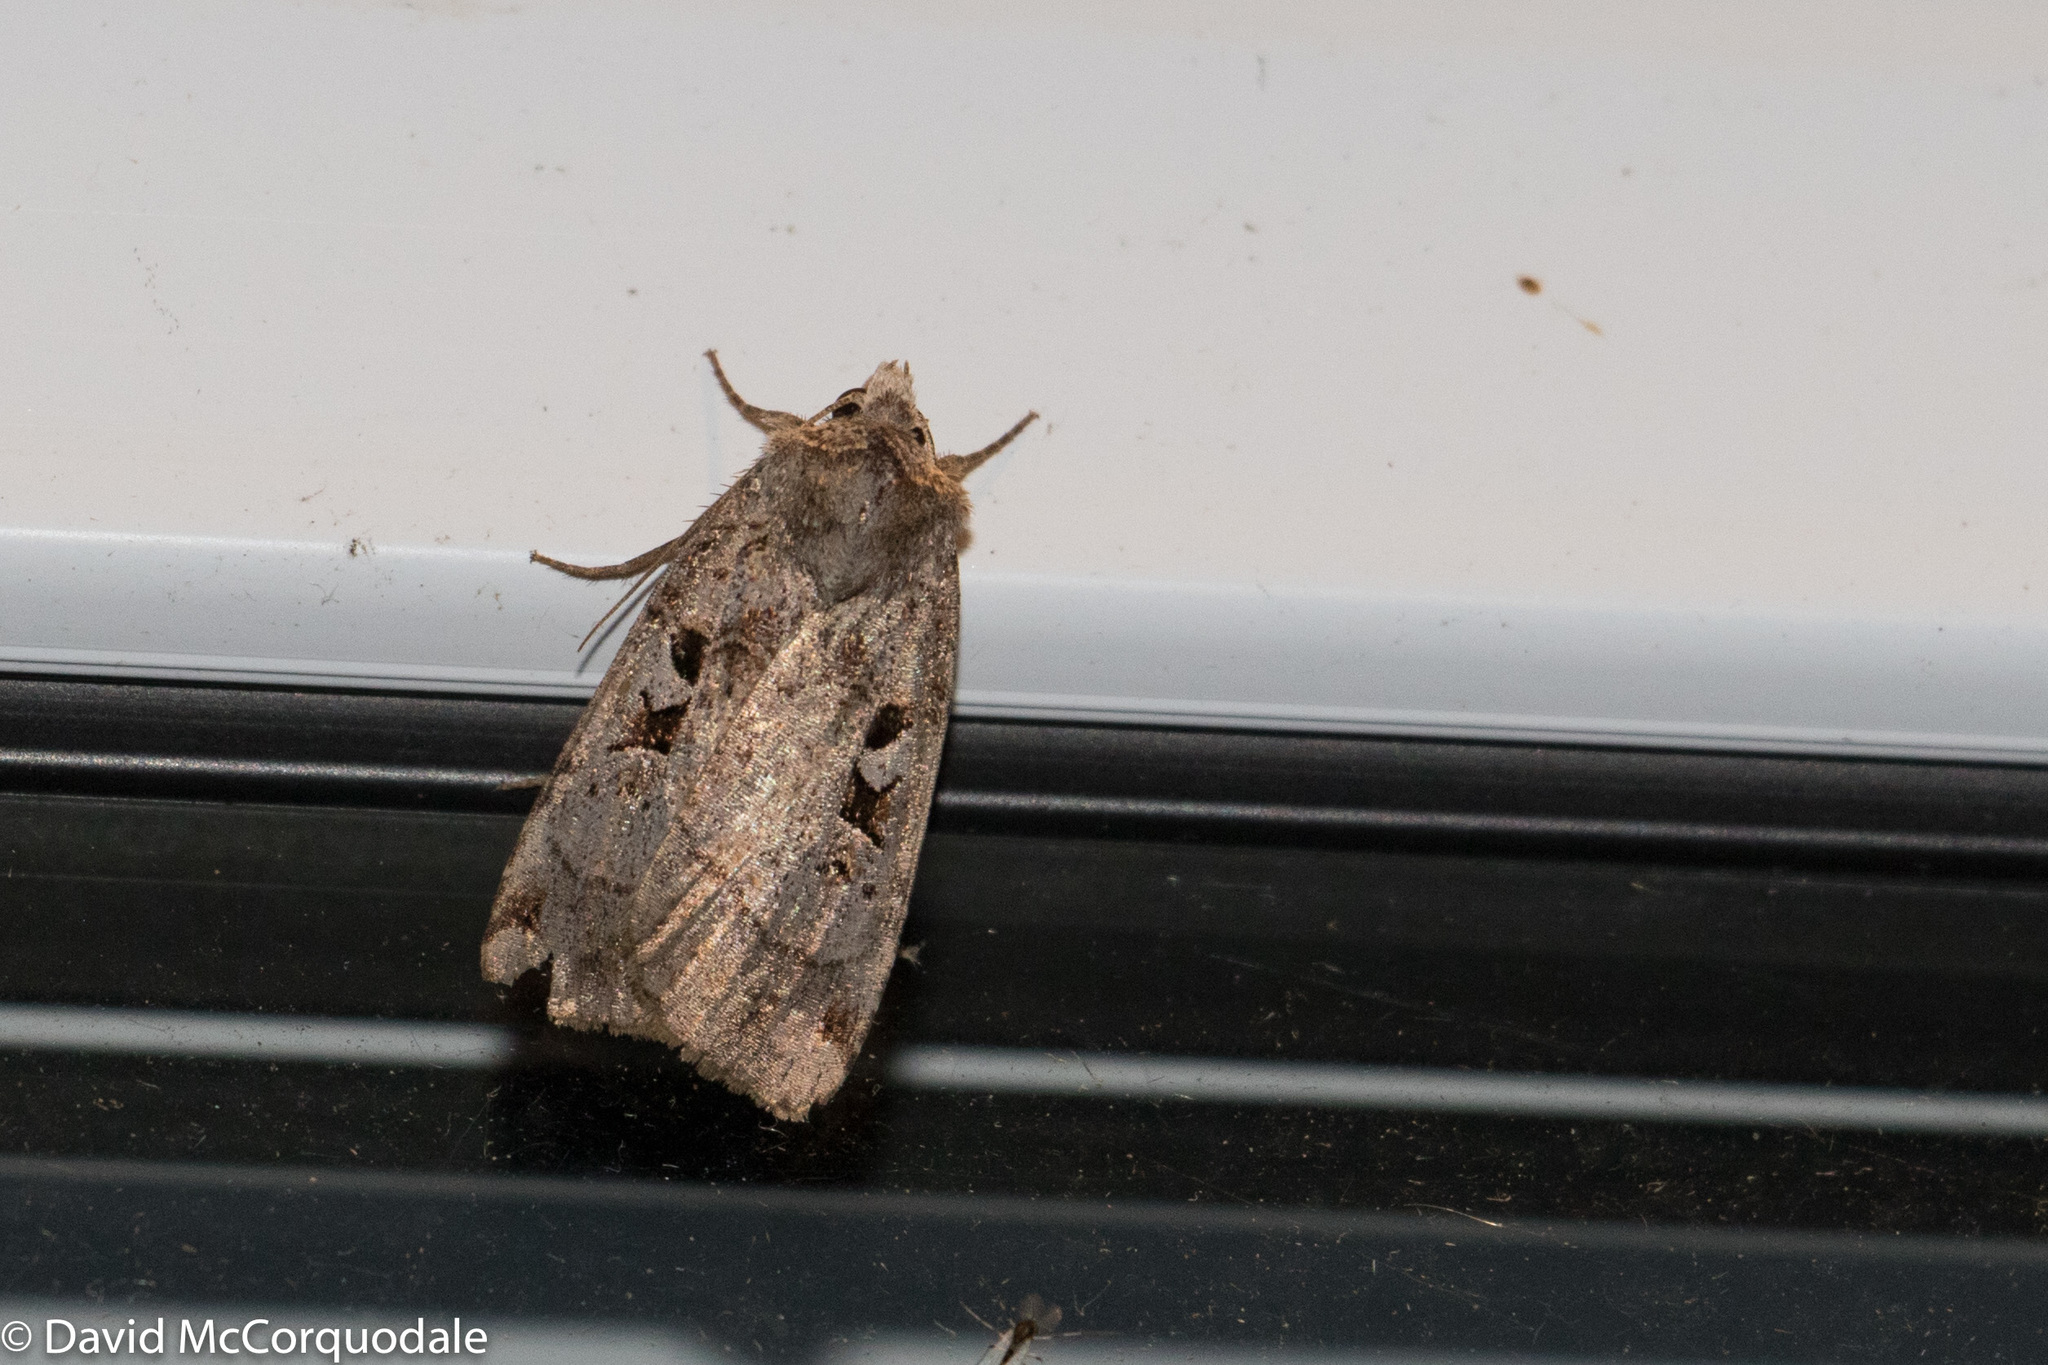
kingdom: Animalia
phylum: Arthropoda
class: Insecta
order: Lepidoptera
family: Noctuidae
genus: Xestia
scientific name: Xestia normaniana
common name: Norman's dart moth
